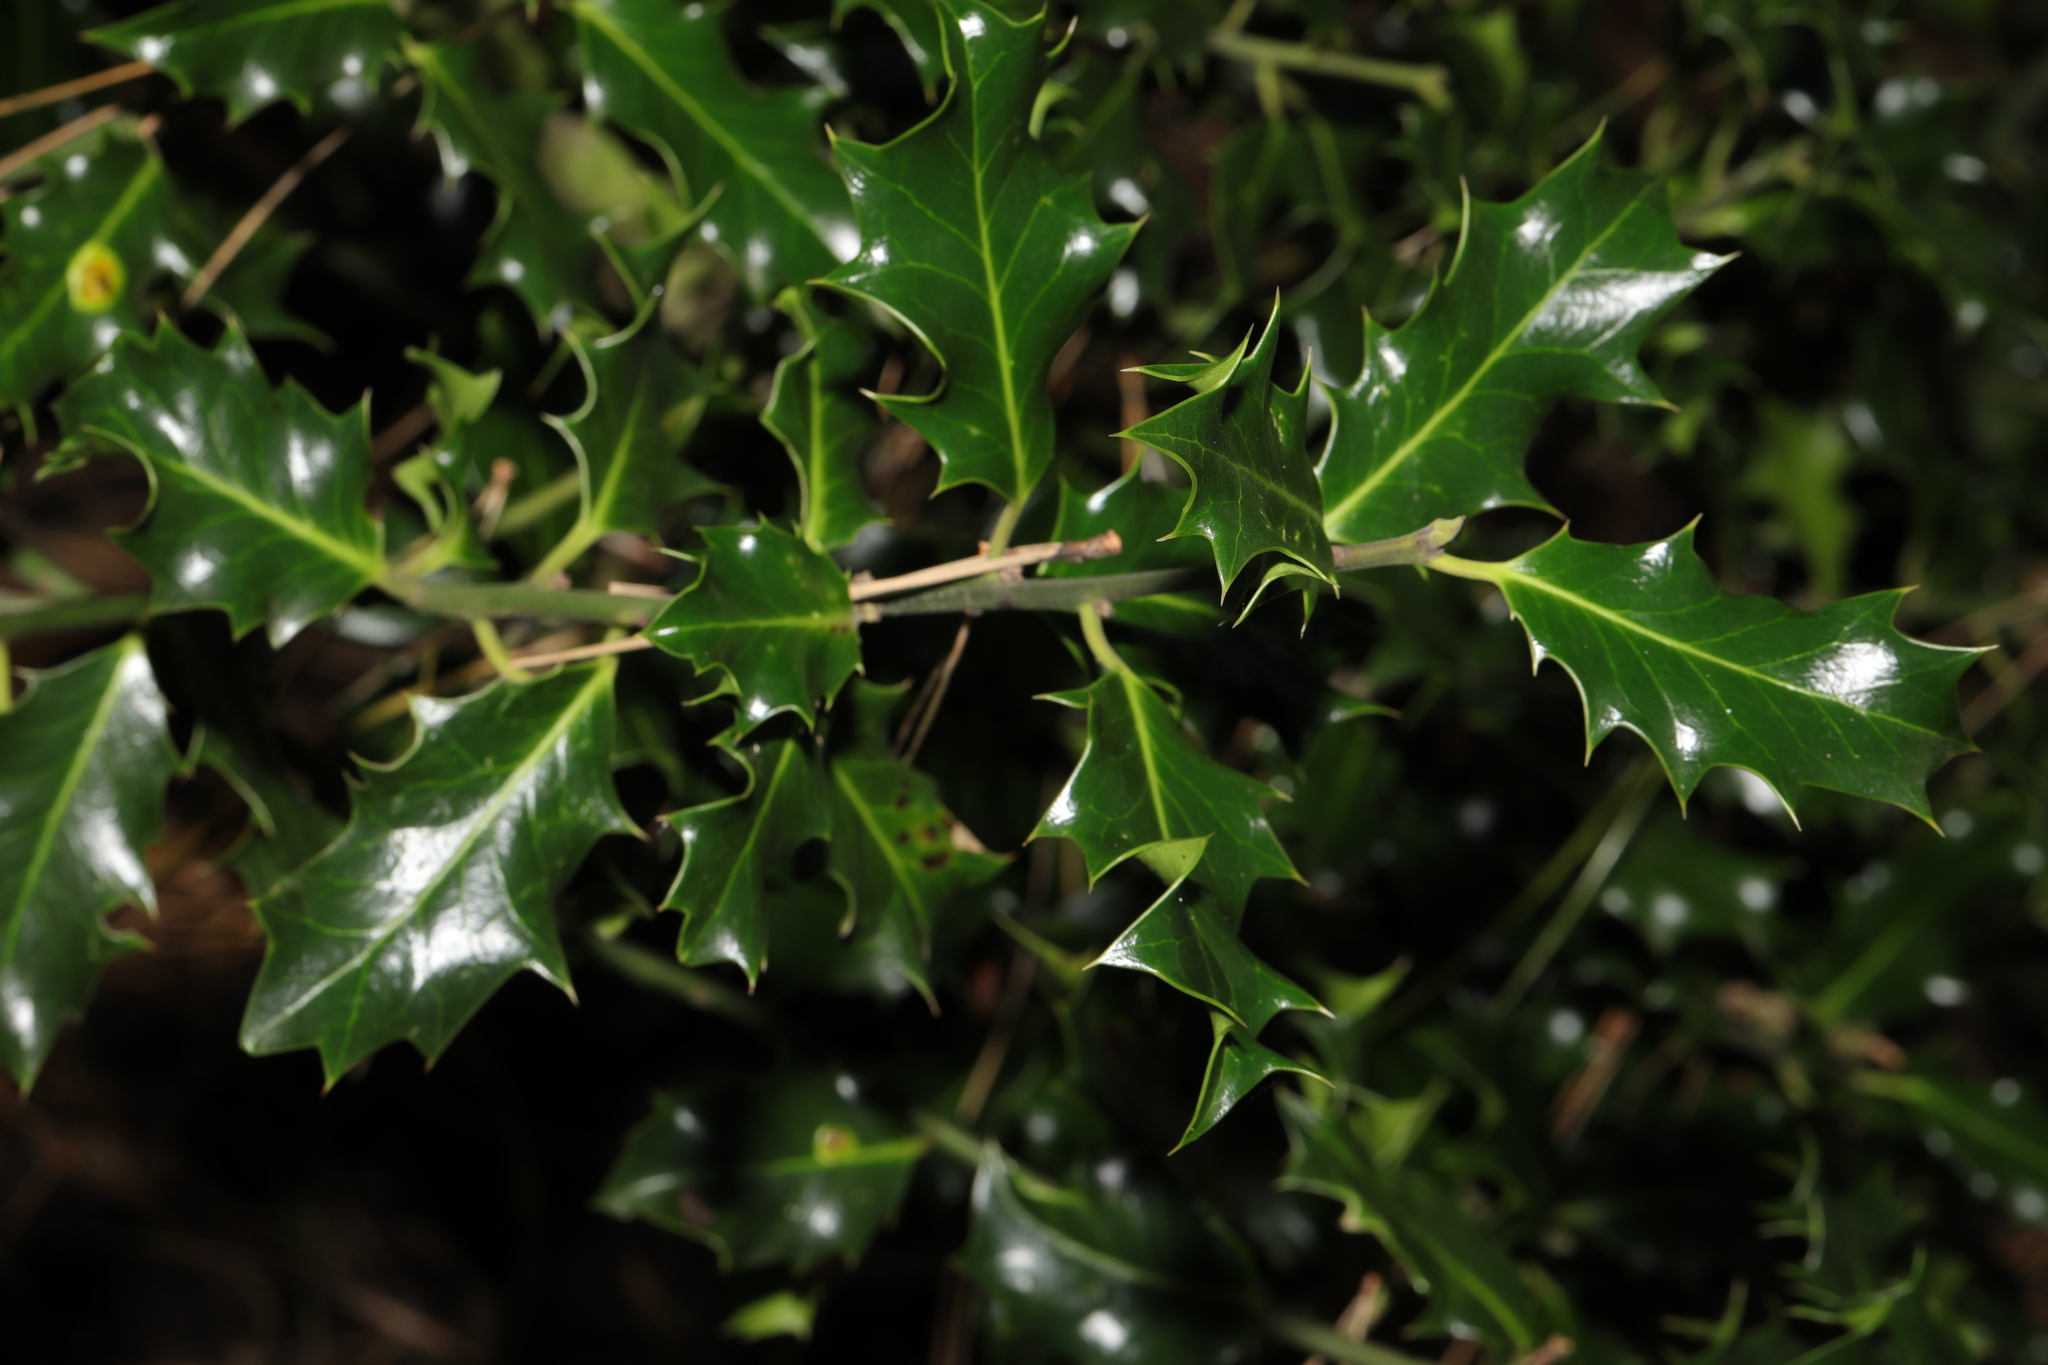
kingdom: Plantae
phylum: Tracheophyta
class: Magnoliopsida
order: Aquifoliales
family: Aquifoliaceae
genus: Ilex
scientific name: Ilex aquifolium
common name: English holly
